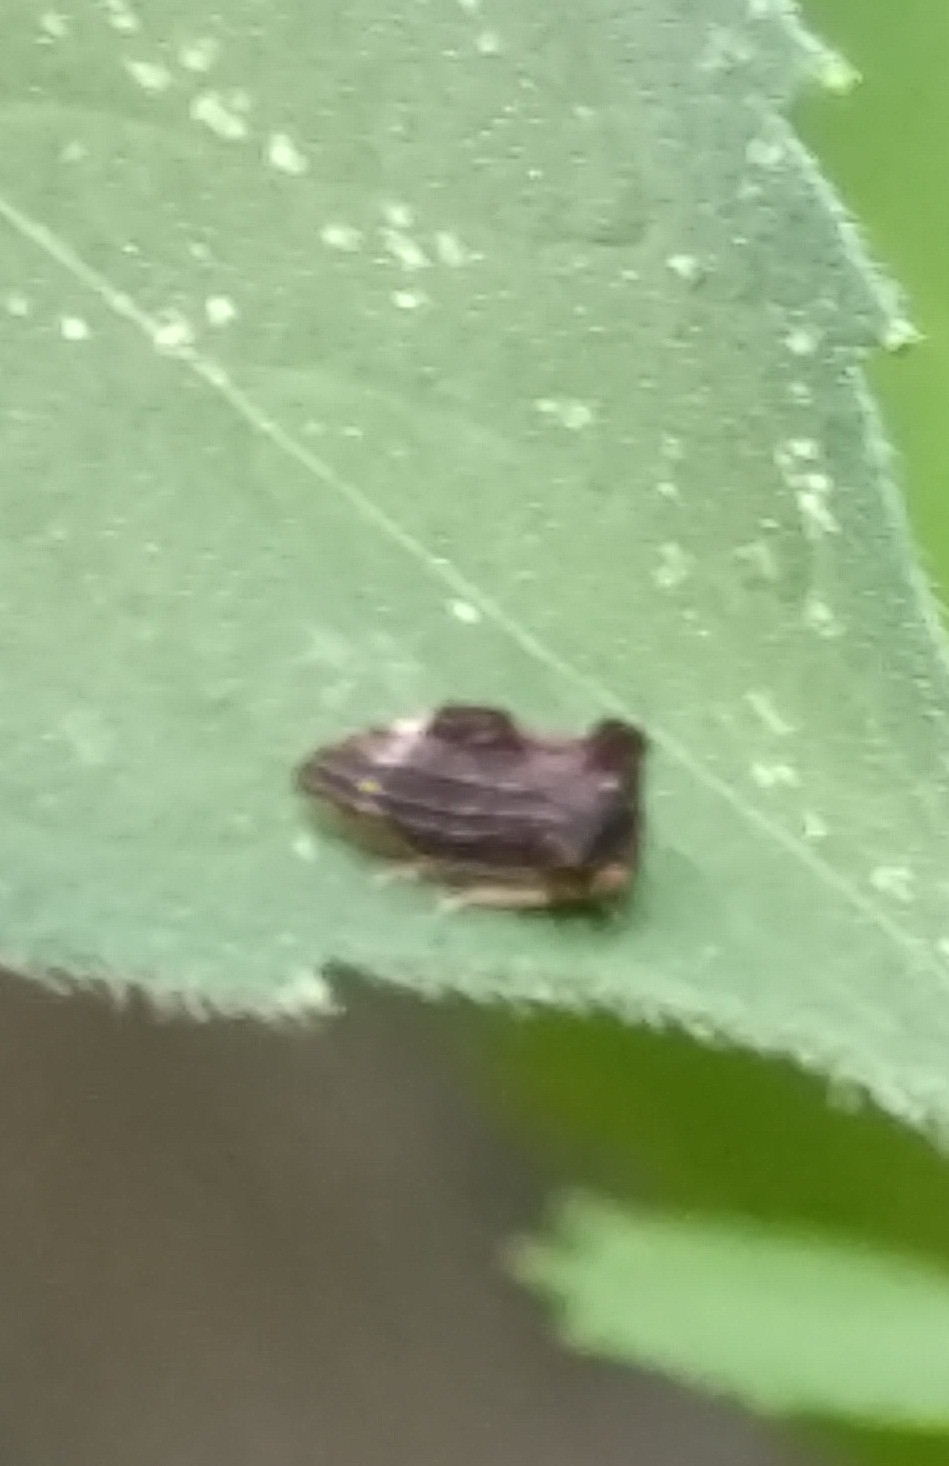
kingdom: Animalia
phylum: Arthropoda
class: Insecta
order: Hemiptera
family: Membracidae
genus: Entylia
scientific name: Entylia carinata
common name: Keeled treehopper
